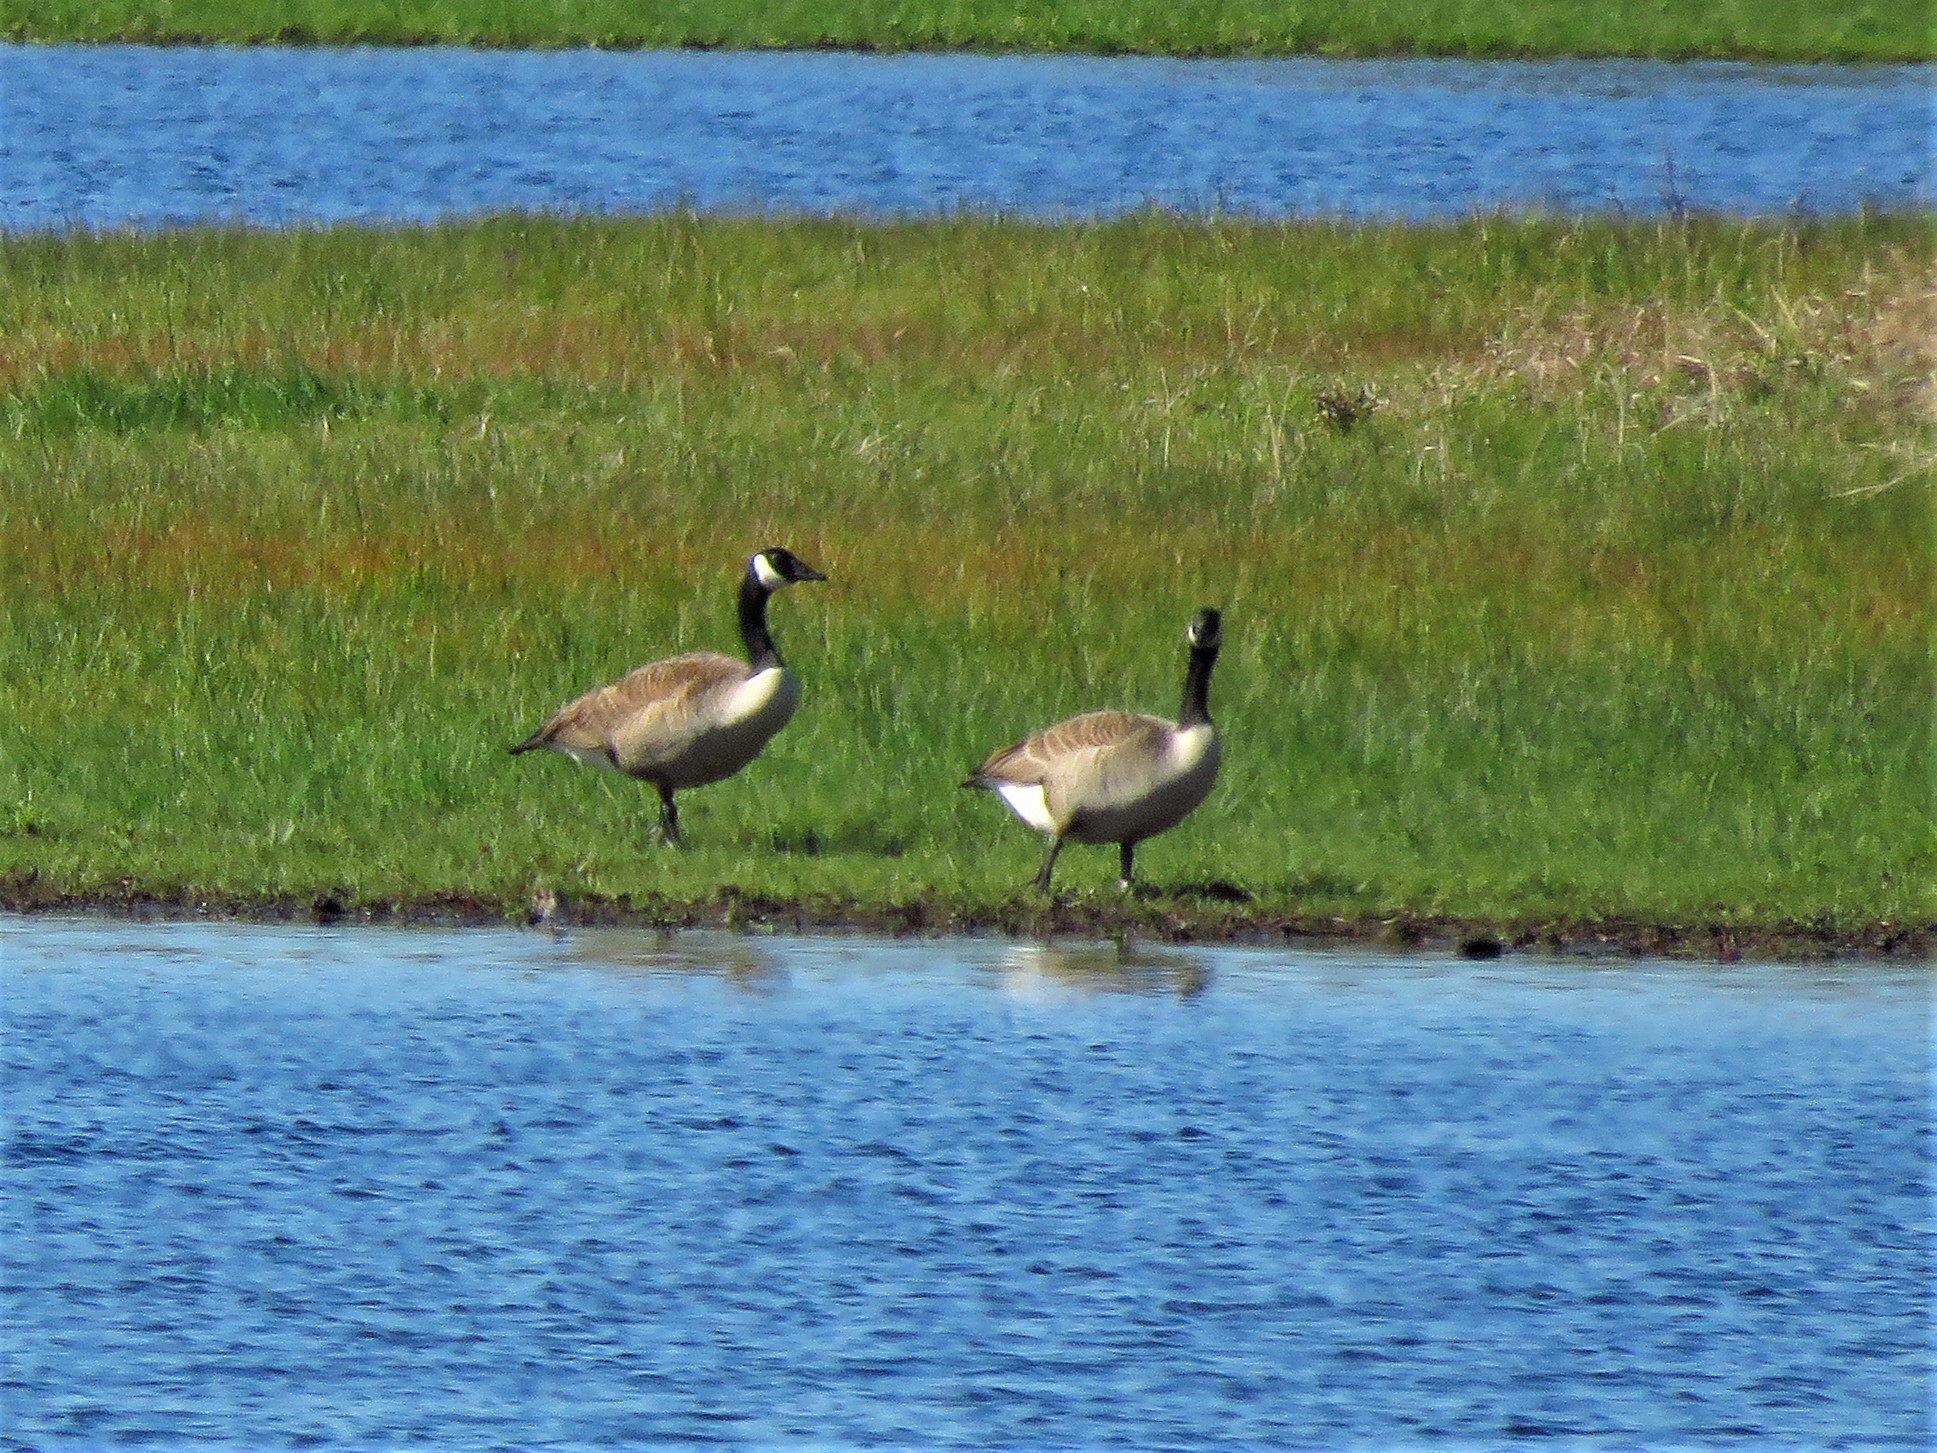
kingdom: Animalia
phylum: Chordata
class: Aves
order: Anseriformes
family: Anatidae
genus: Branta
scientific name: Branta canadensis
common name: Canada goose
